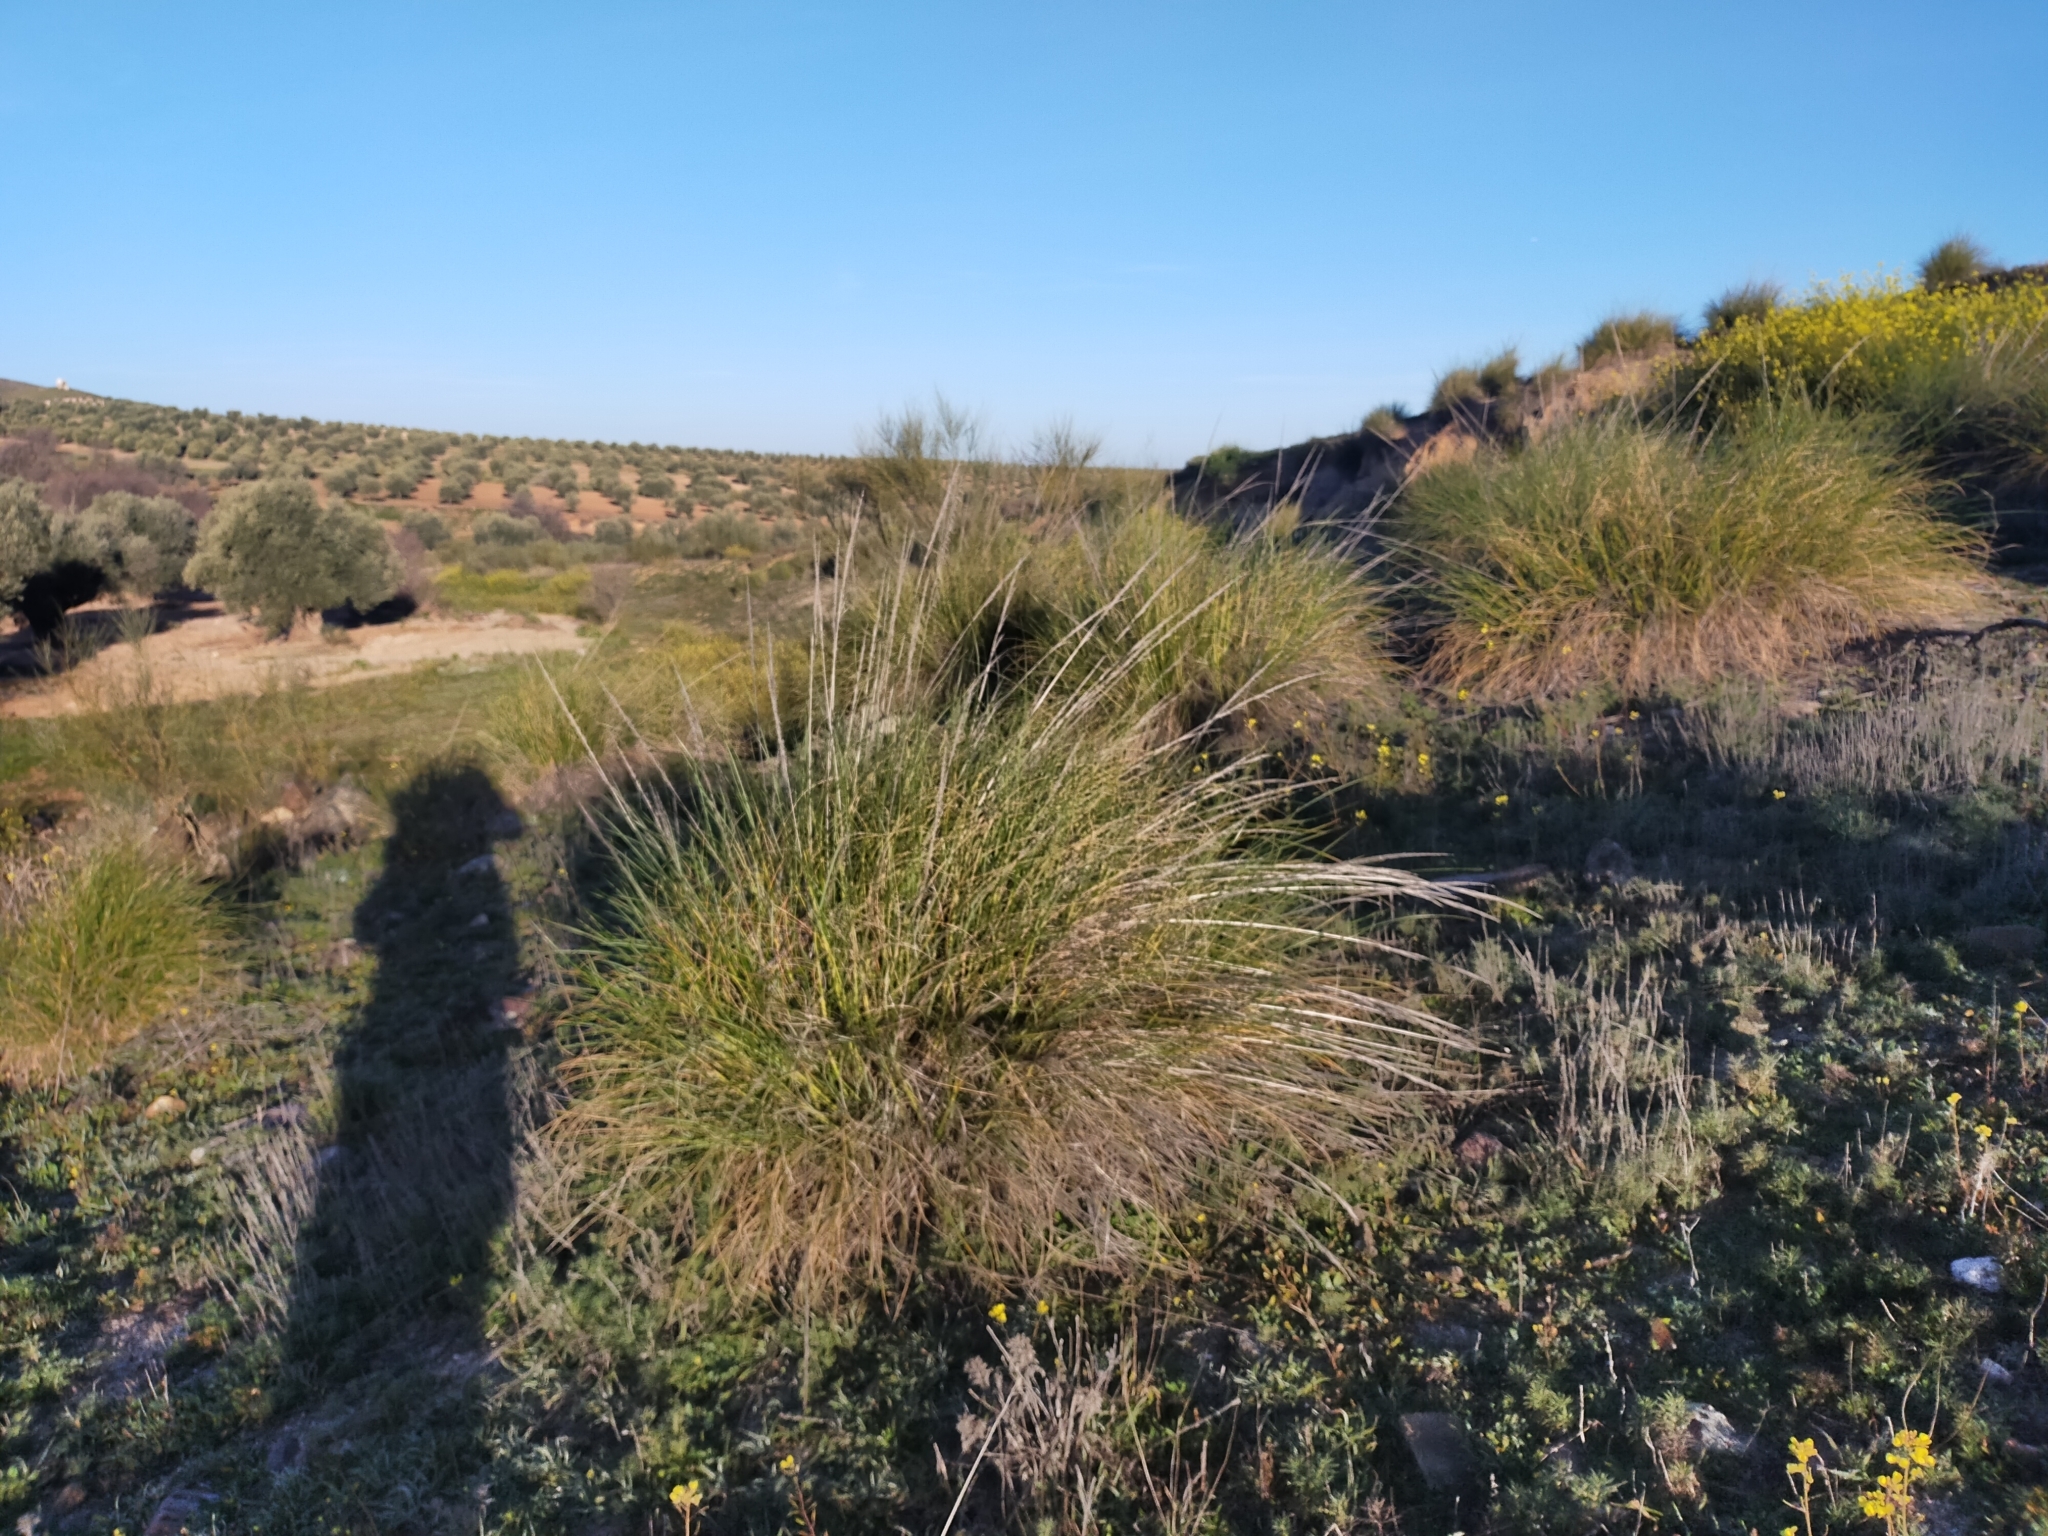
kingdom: Plantae
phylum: Tracheophyta
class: Liliopsida
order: Poales
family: Poaceae
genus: Macrochloa
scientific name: Macrochloa tenacissima
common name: Alfa grass
